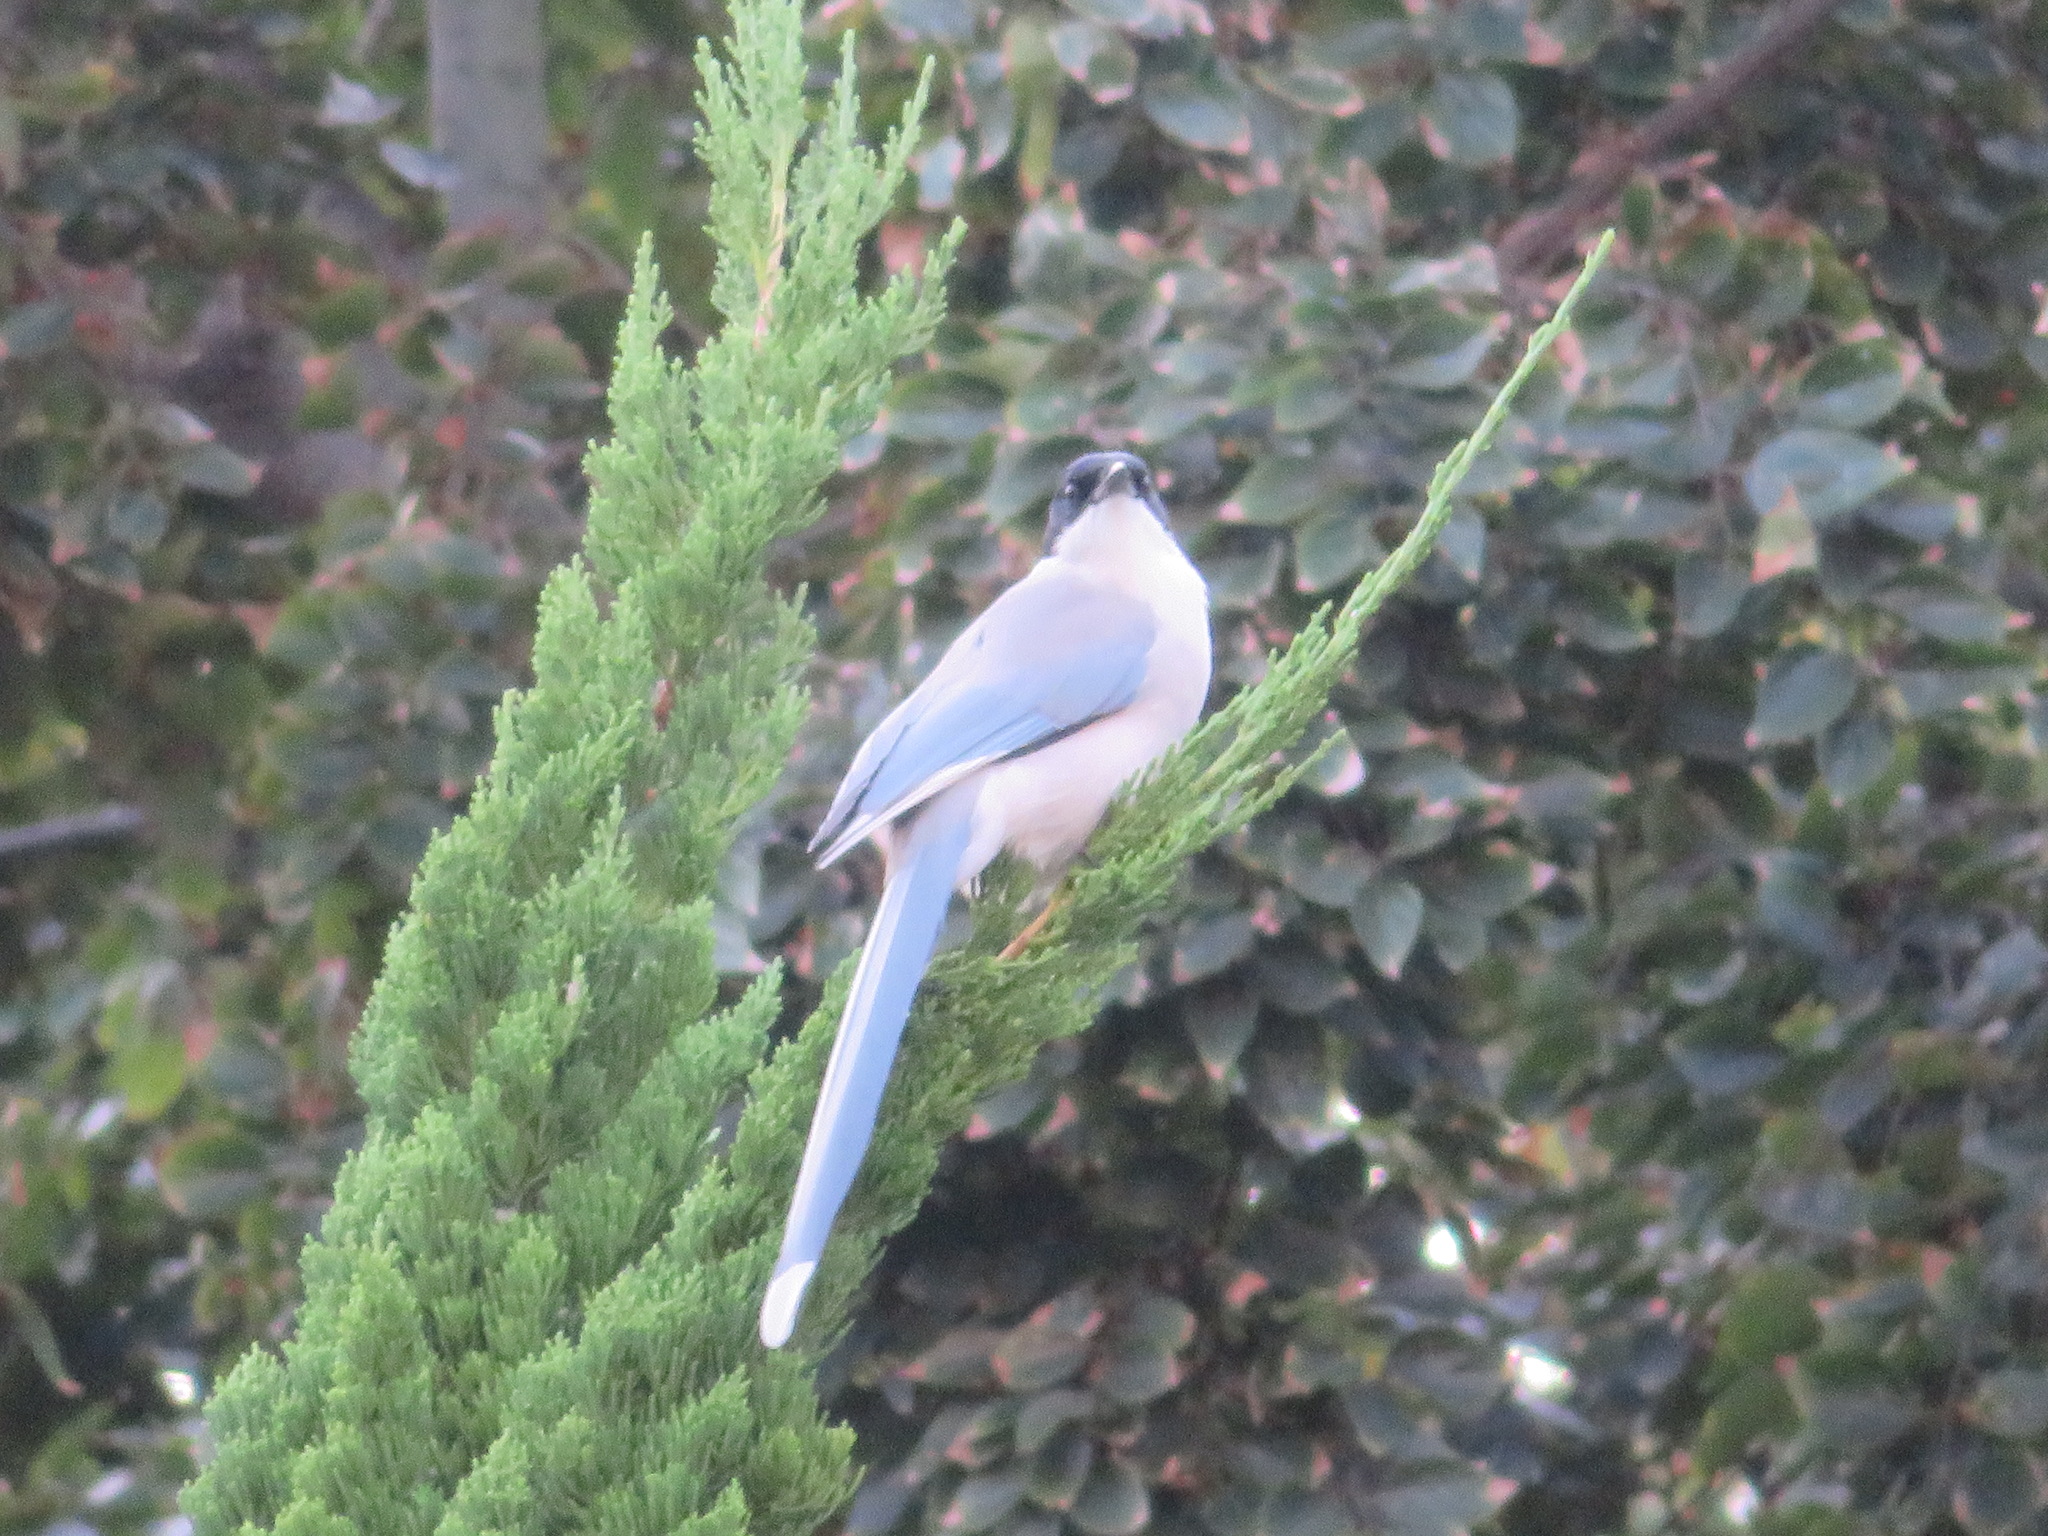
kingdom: Animalia
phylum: Chordata
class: Aves
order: Passeriformes
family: Corvidae
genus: Cyanopica
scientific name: Cyanopica cyanus
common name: Azure-winged magpie
